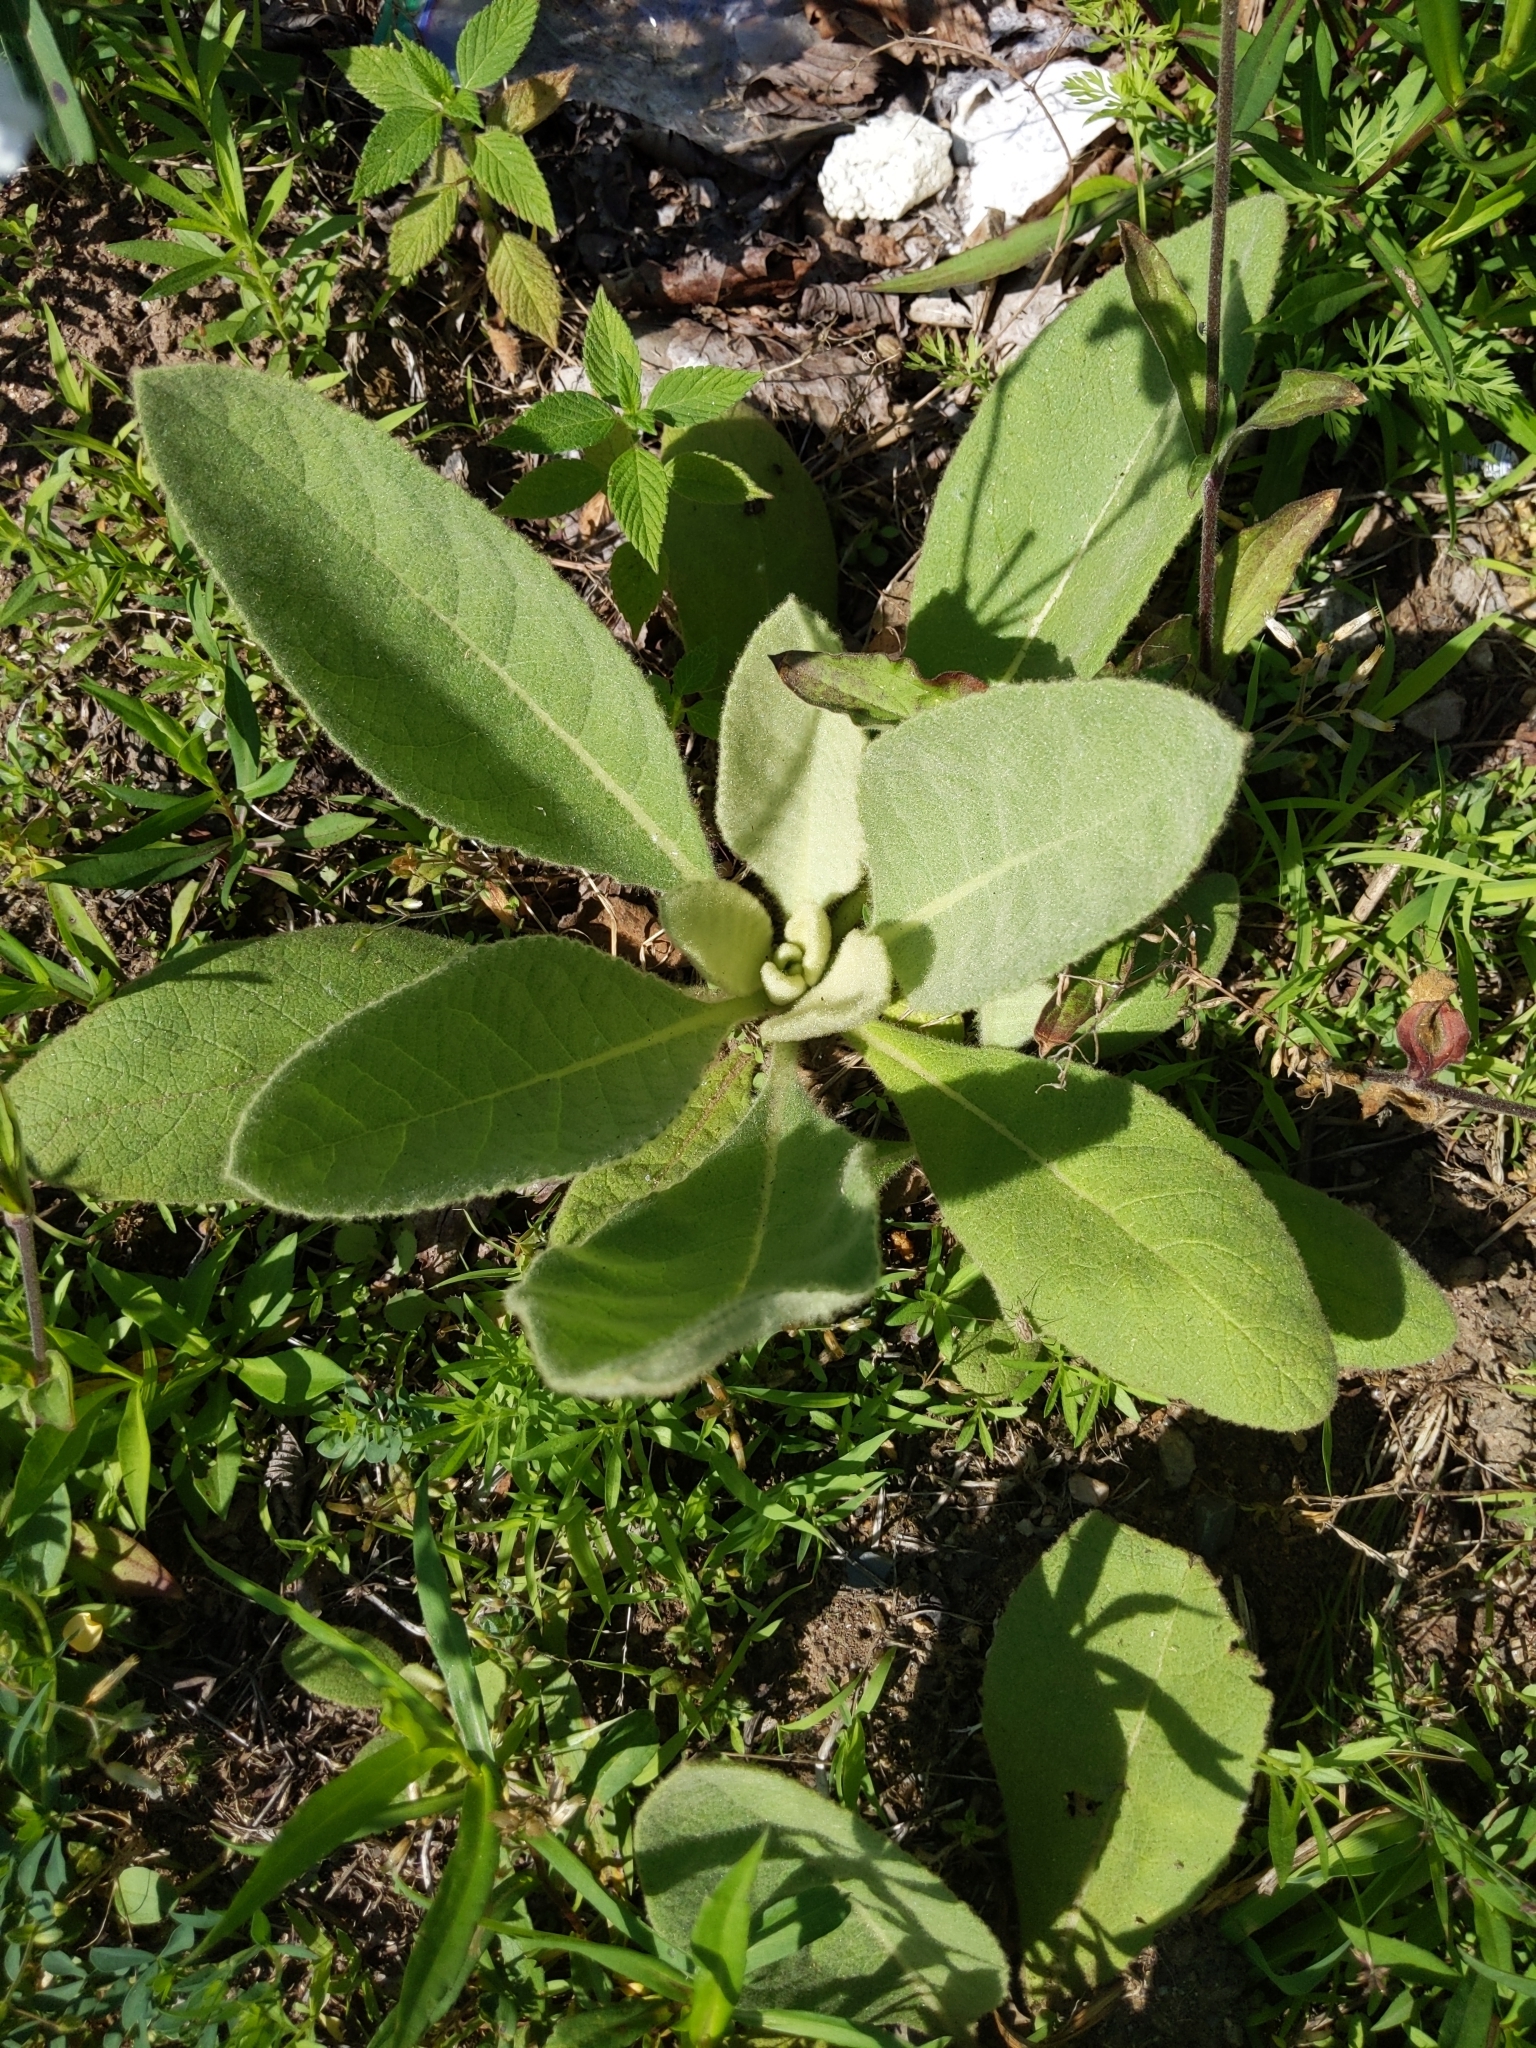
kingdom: Plantae
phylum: Tracheophyta
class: Magnoliopsida
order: Lamiales
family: Scrophulariaceae
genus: Verbascum
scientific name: Verbascum thapsus
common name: Common mullein
